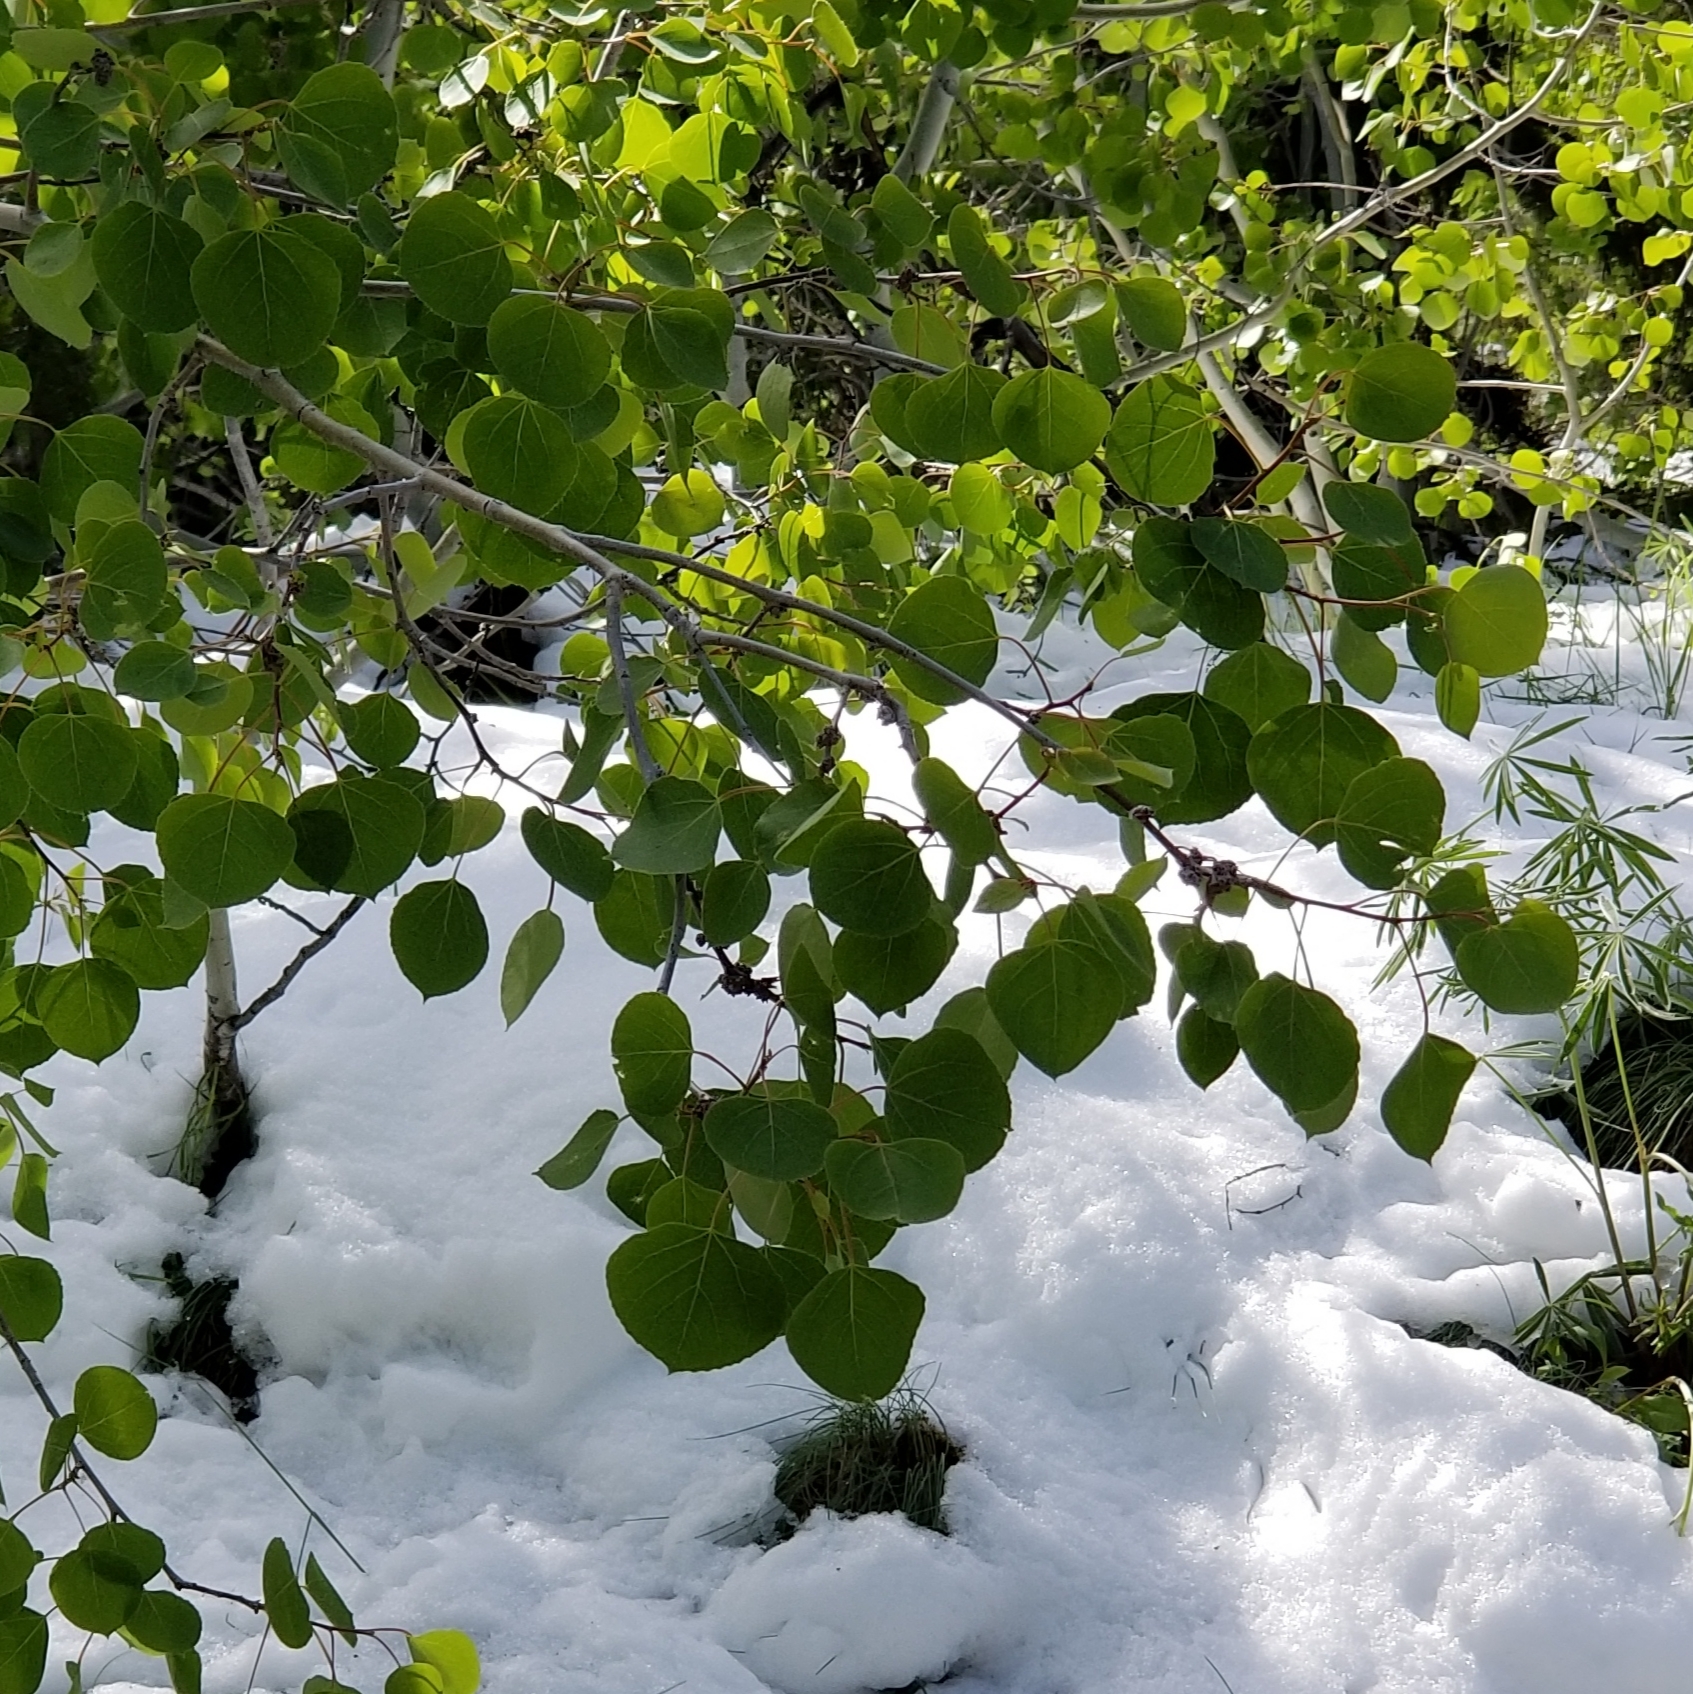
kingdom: Plantae
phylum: Tracheophyta
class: Magnoliopsida
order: Malpighiales
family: Salicaceae
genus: Populus
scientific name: Populus tremuloides
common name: Quaking aspen
